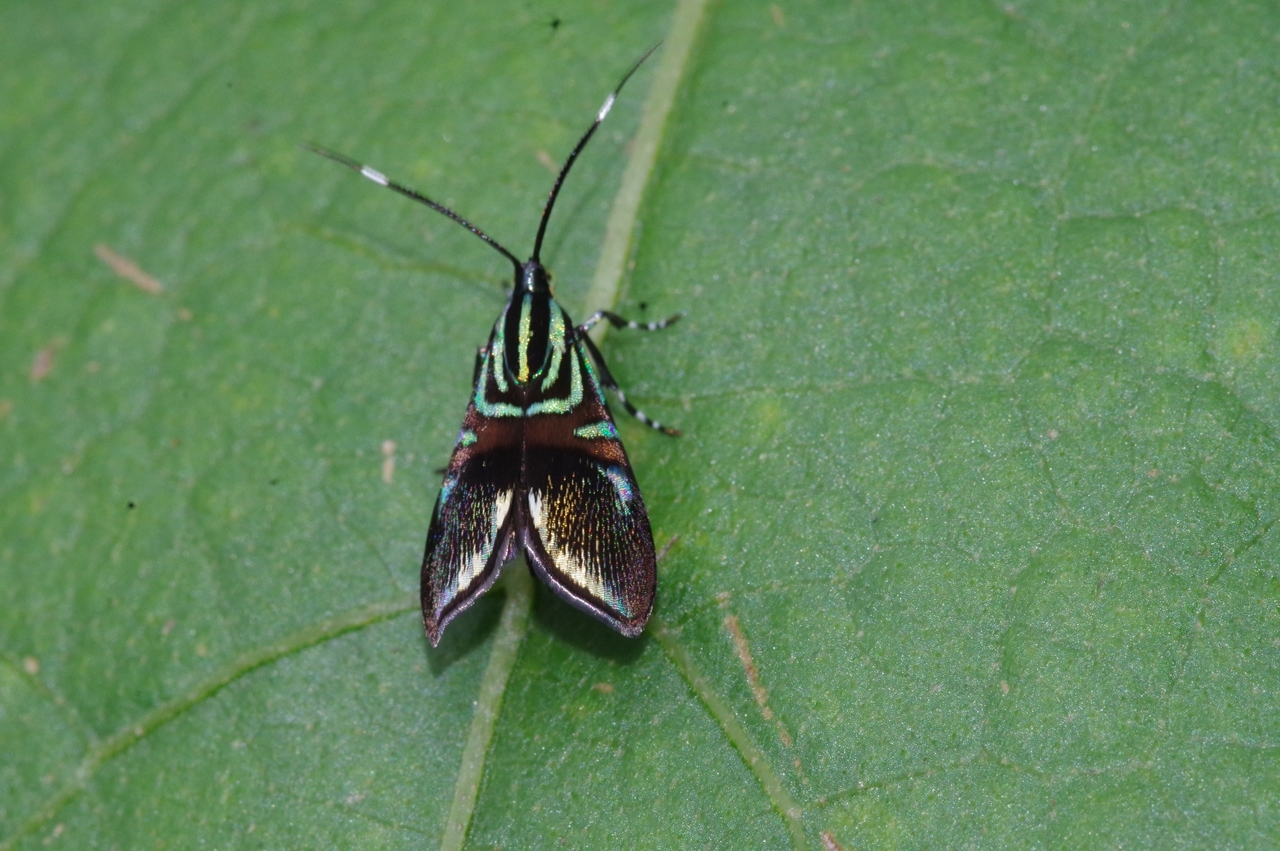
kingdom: Animalia
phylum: Arthropoda
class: Insecta
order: Lepidoptera
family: Choreutidae
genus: Saptha
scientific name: Saptha divitiosa
